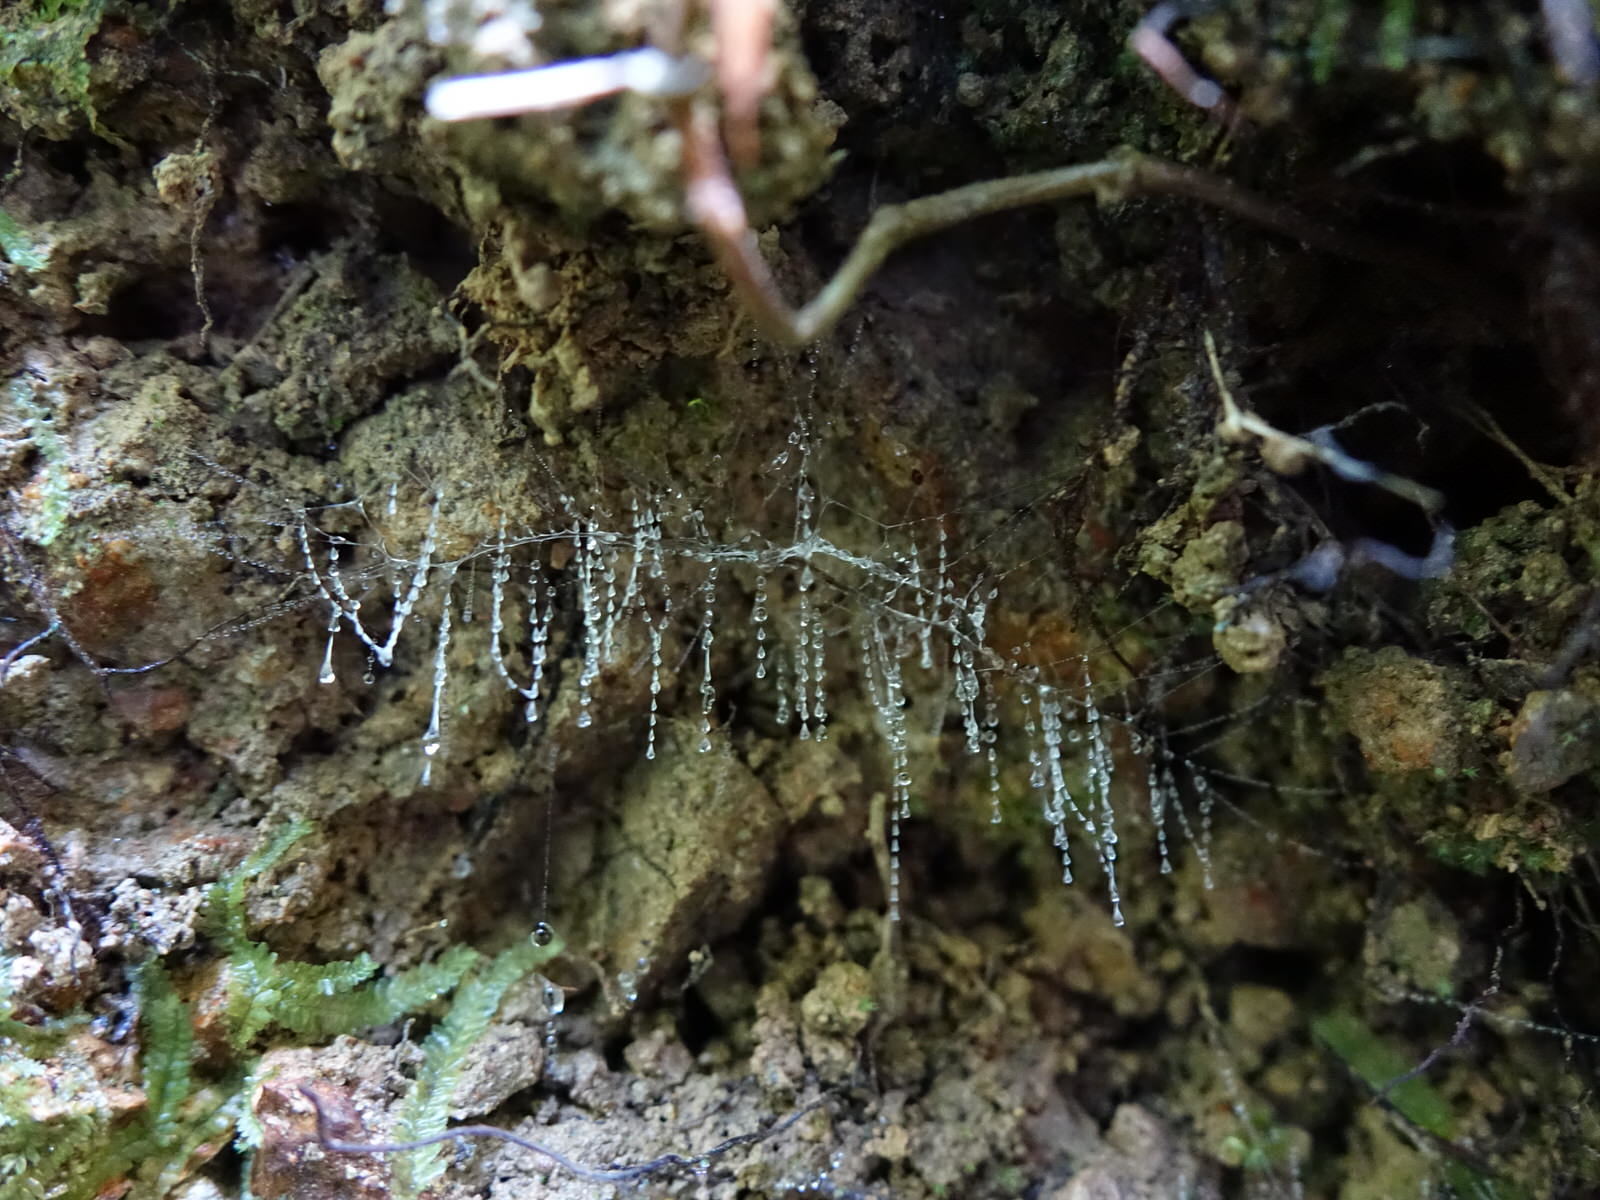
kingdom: Animalia
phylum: Arthropoda
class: Insecta
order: Diptera
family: Keroplatidae
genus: Arachnocampa
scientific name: Arachnocampa luminosa
